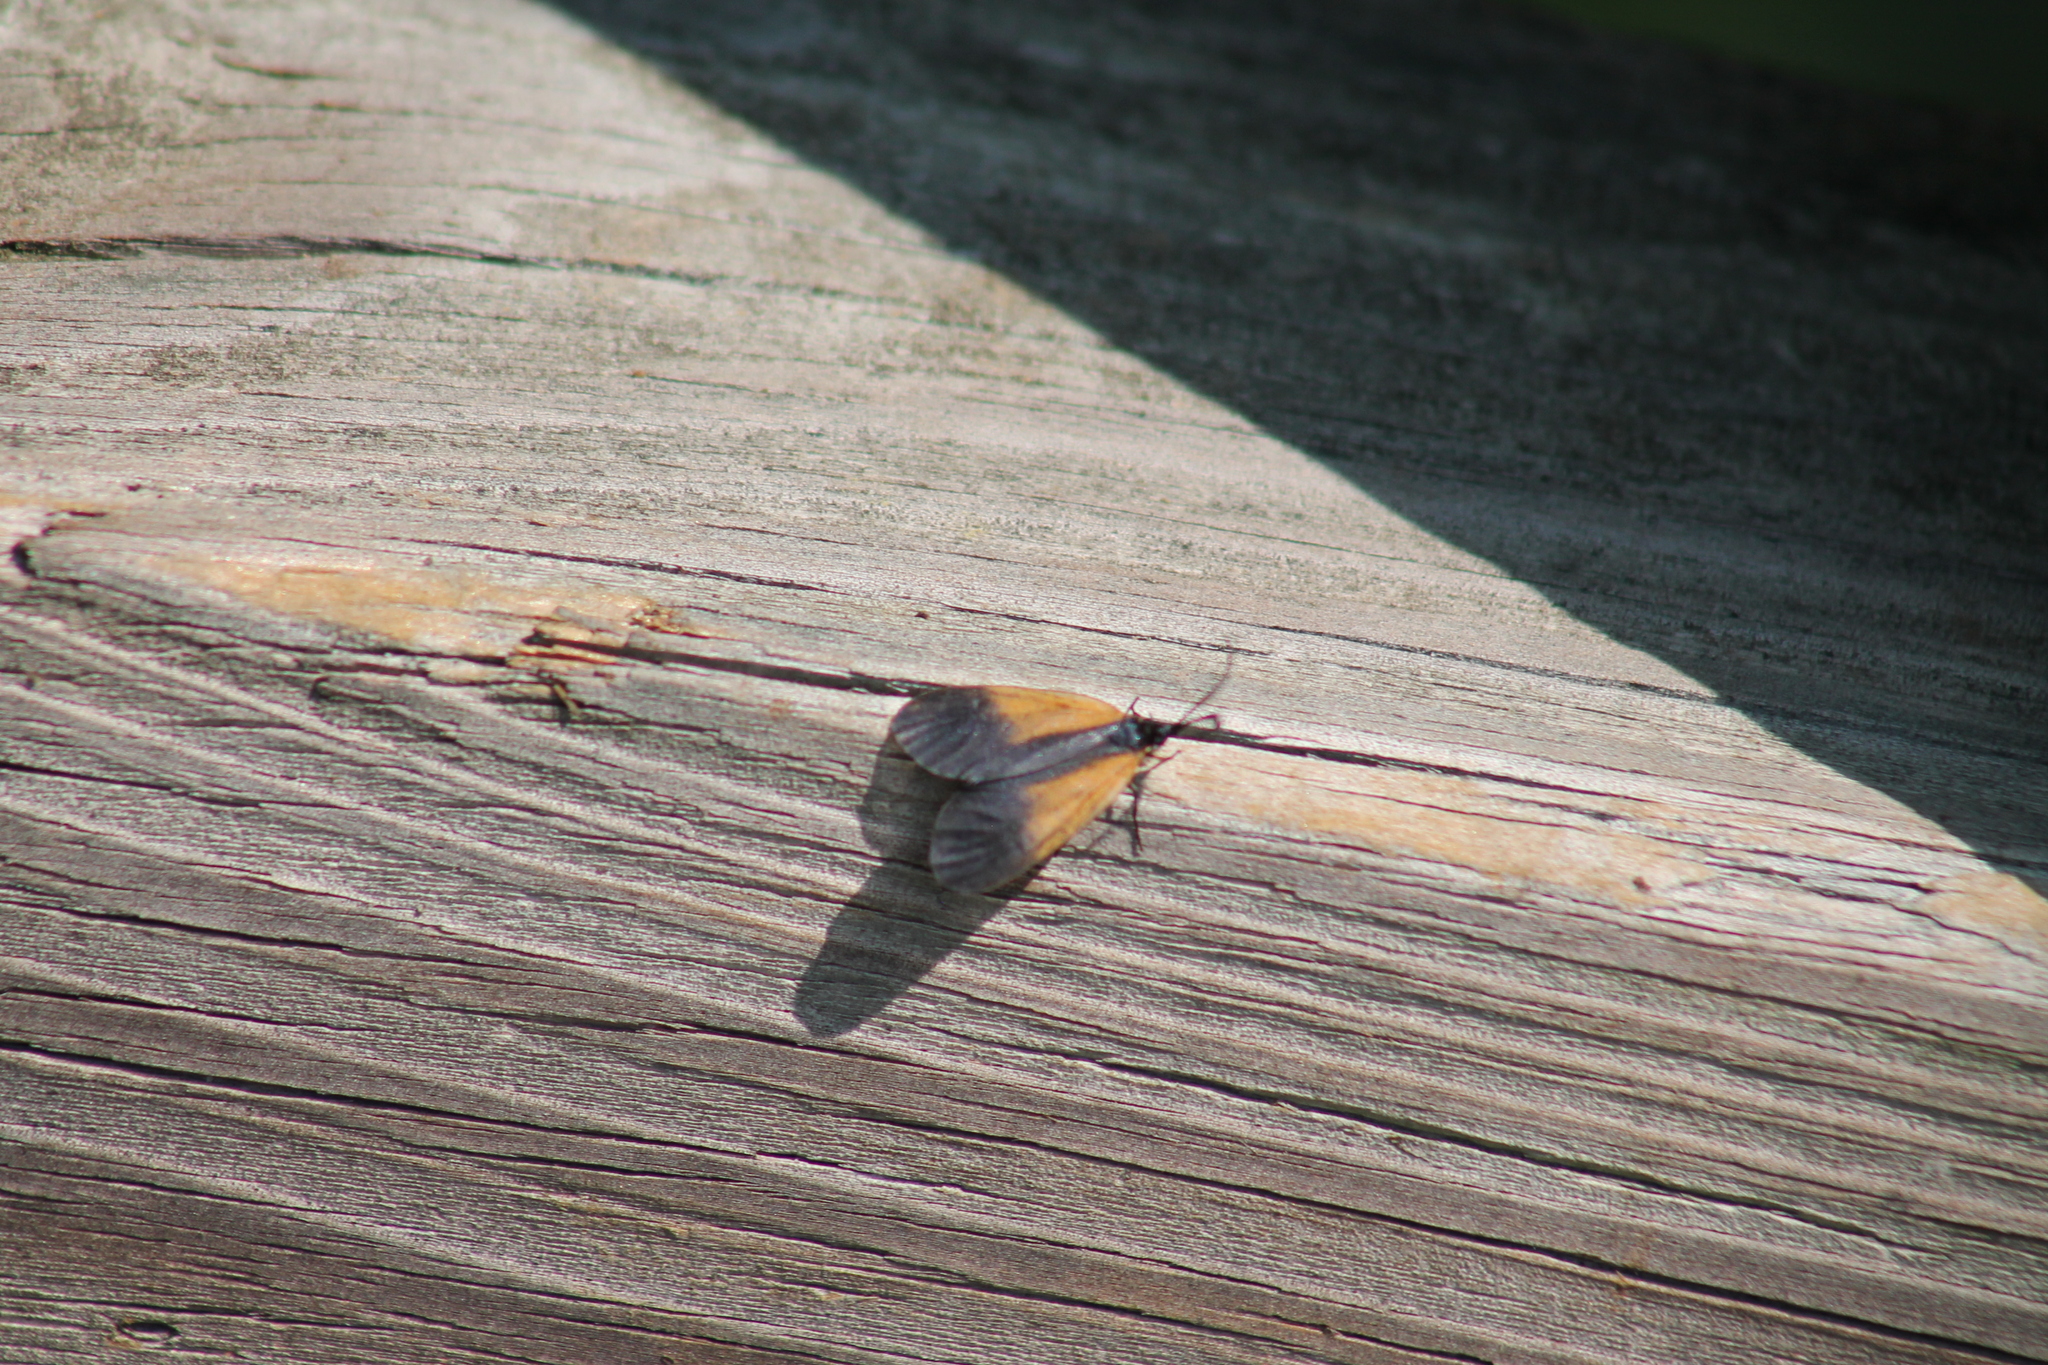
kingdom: Animalia
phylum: Arthropoda
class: Insecta
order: Lepidoptera
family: Zygaenidae
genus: Malthaca
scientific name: Malthaca dimidiata
